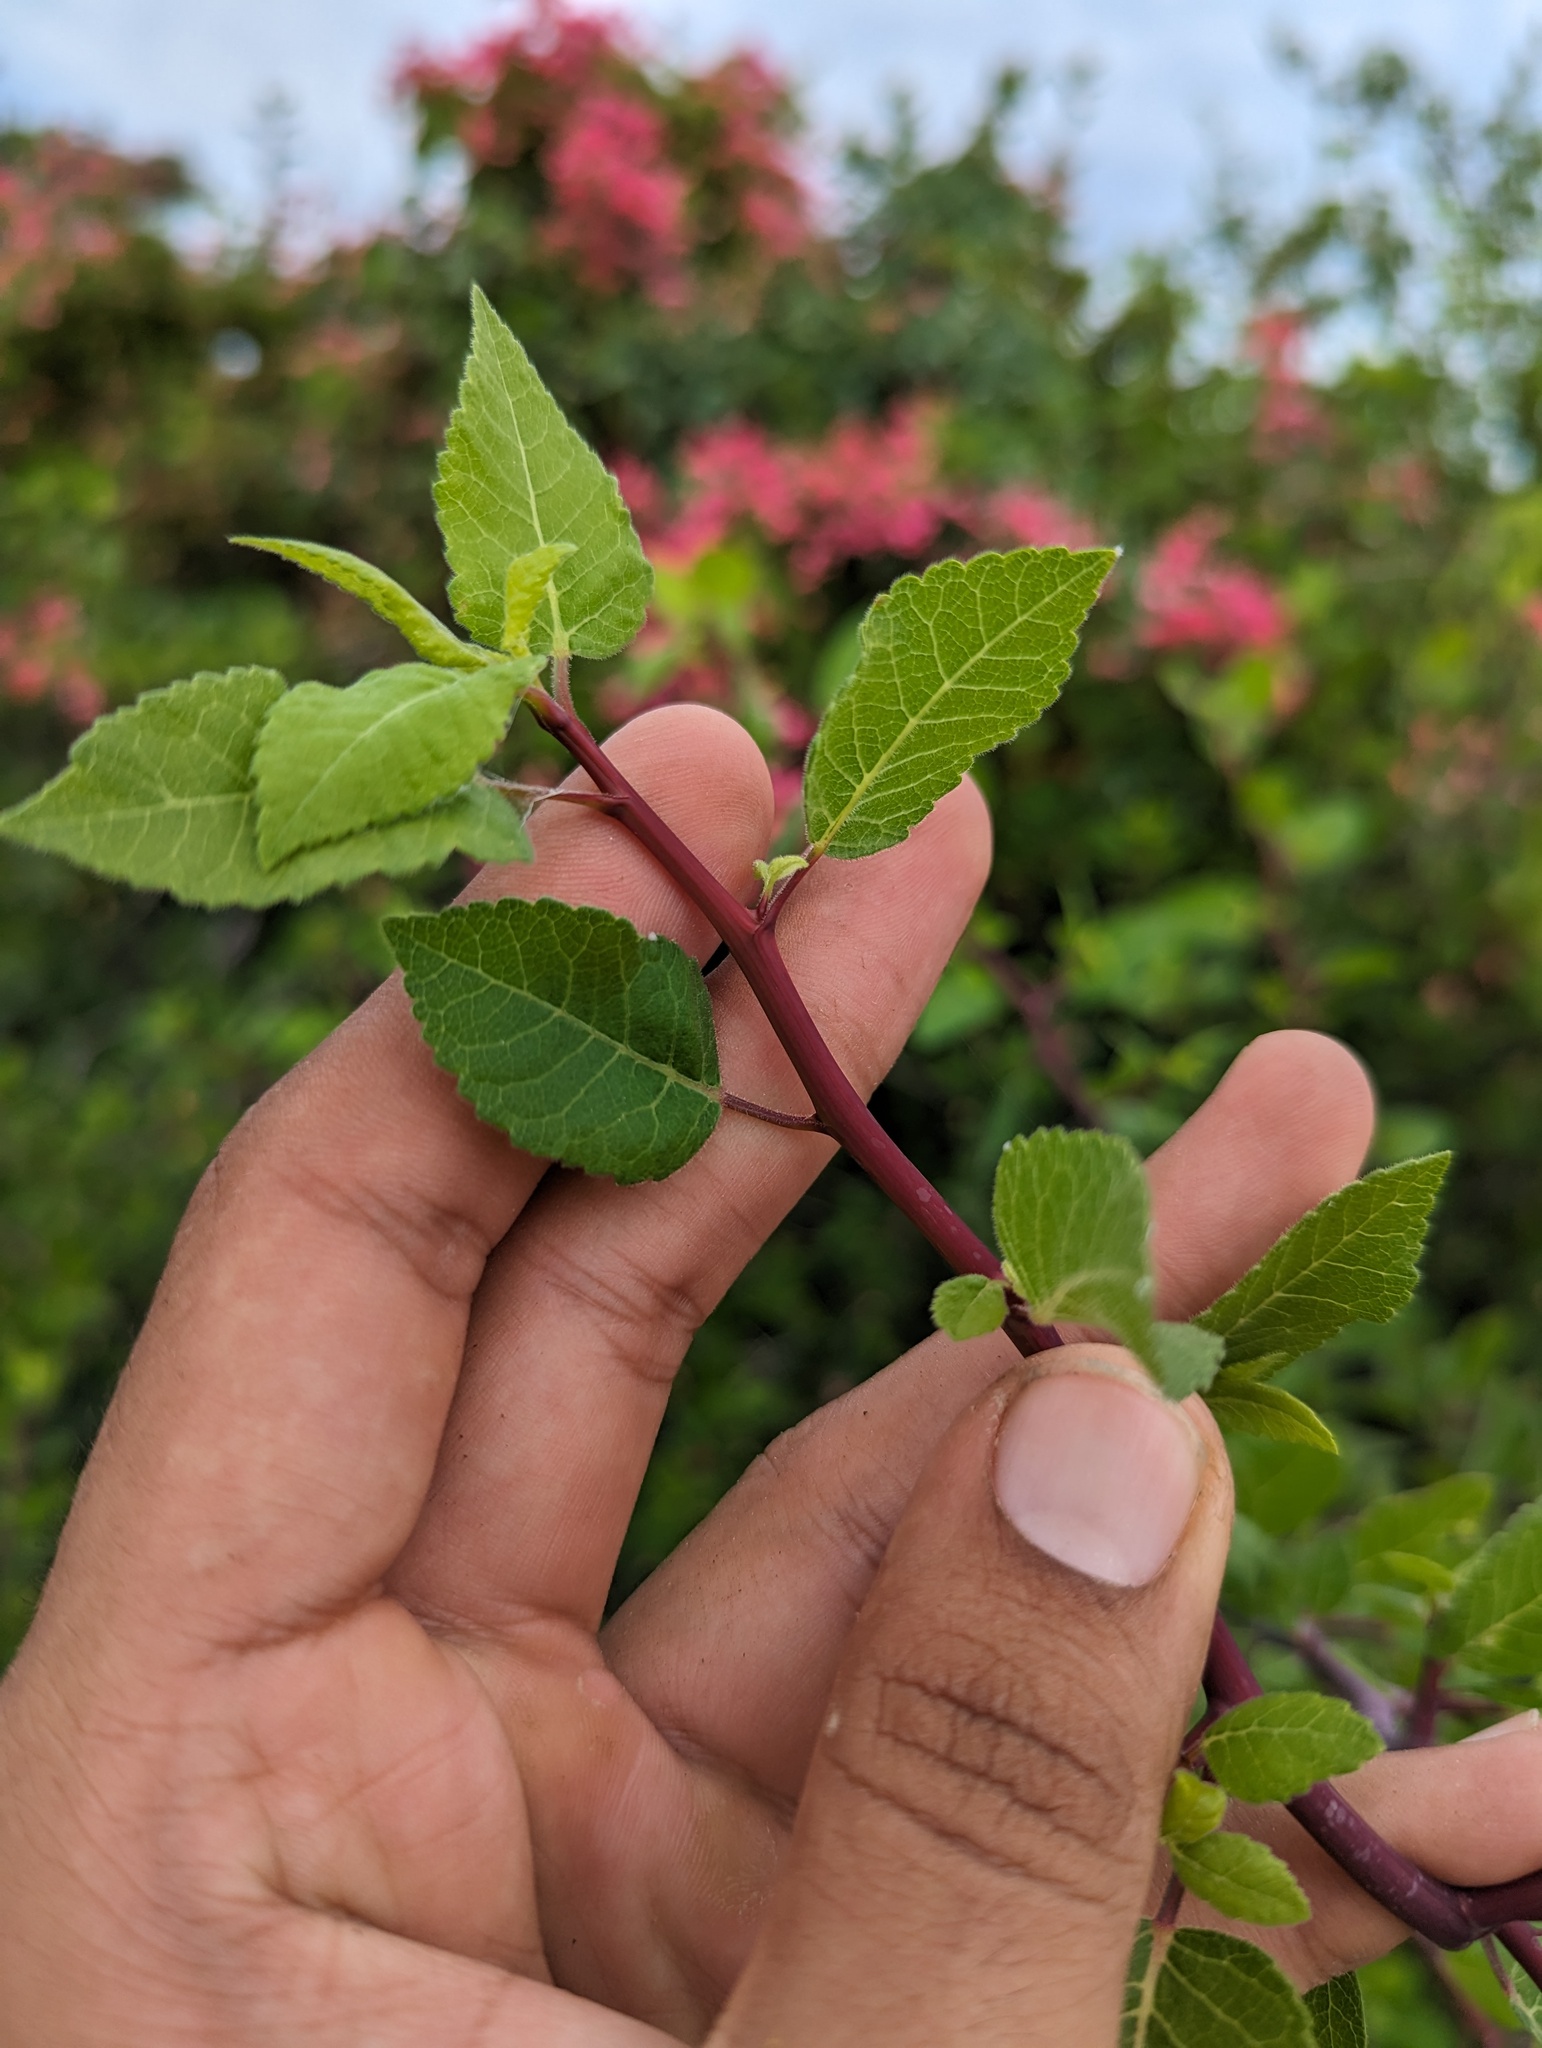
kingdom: Plantae
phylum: Tracheophyta
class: Magnoliopsida
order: Sapindales
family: Burseraceae
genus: Bursera
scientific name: Bursera epinnata
